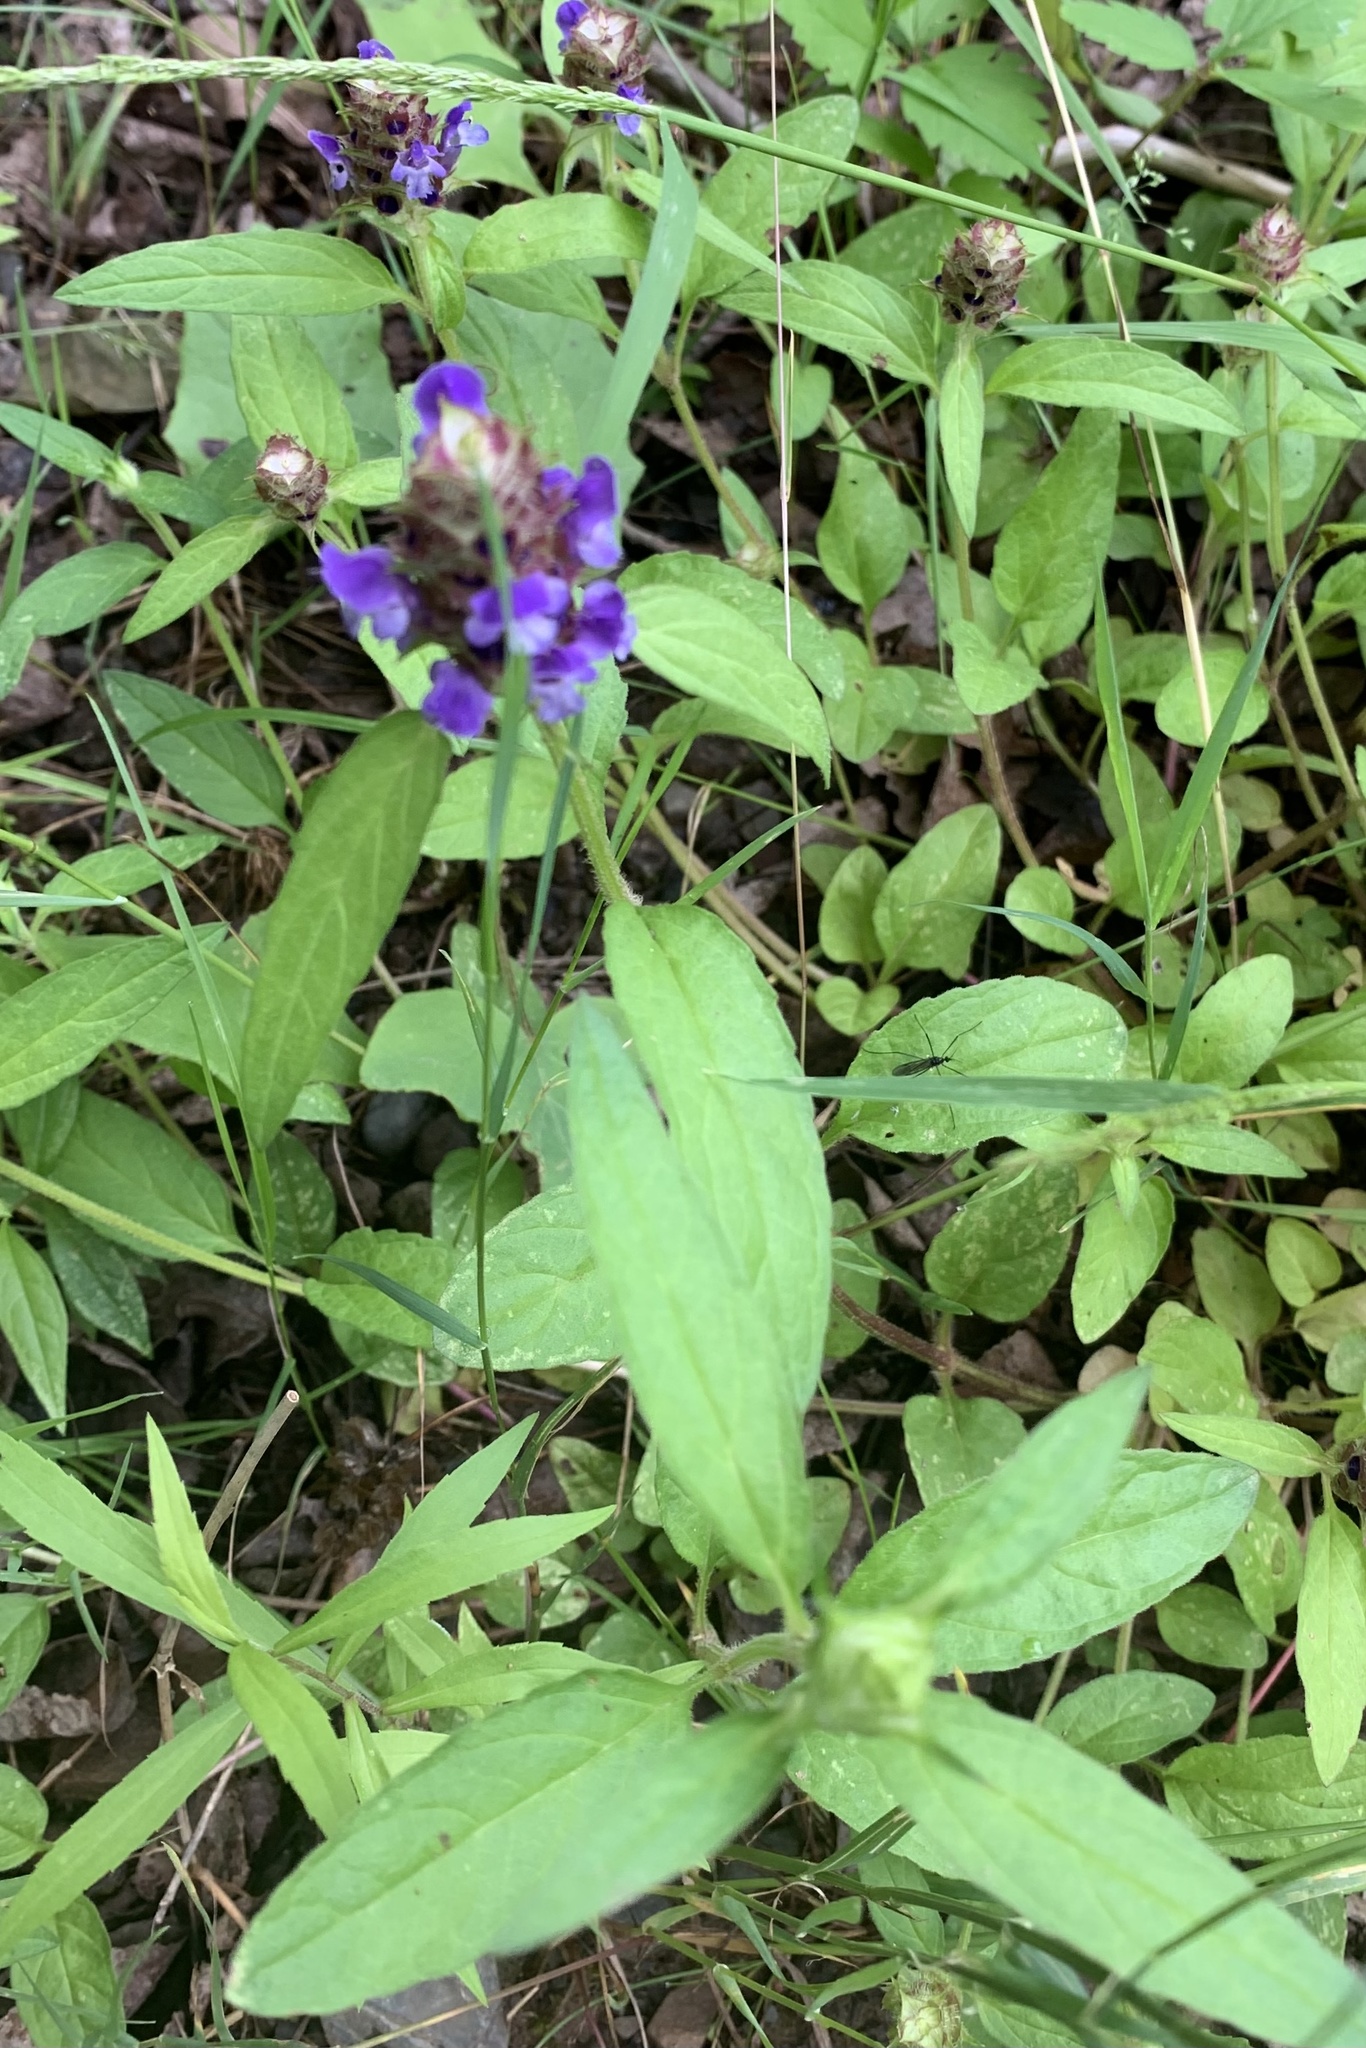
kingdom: Plantae
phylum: Tracheophyta
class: Magnoliopsida
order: Lamiales
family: Lamiaceae
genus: Prunella
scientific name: Prunella vulgaris
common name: Heal-all
